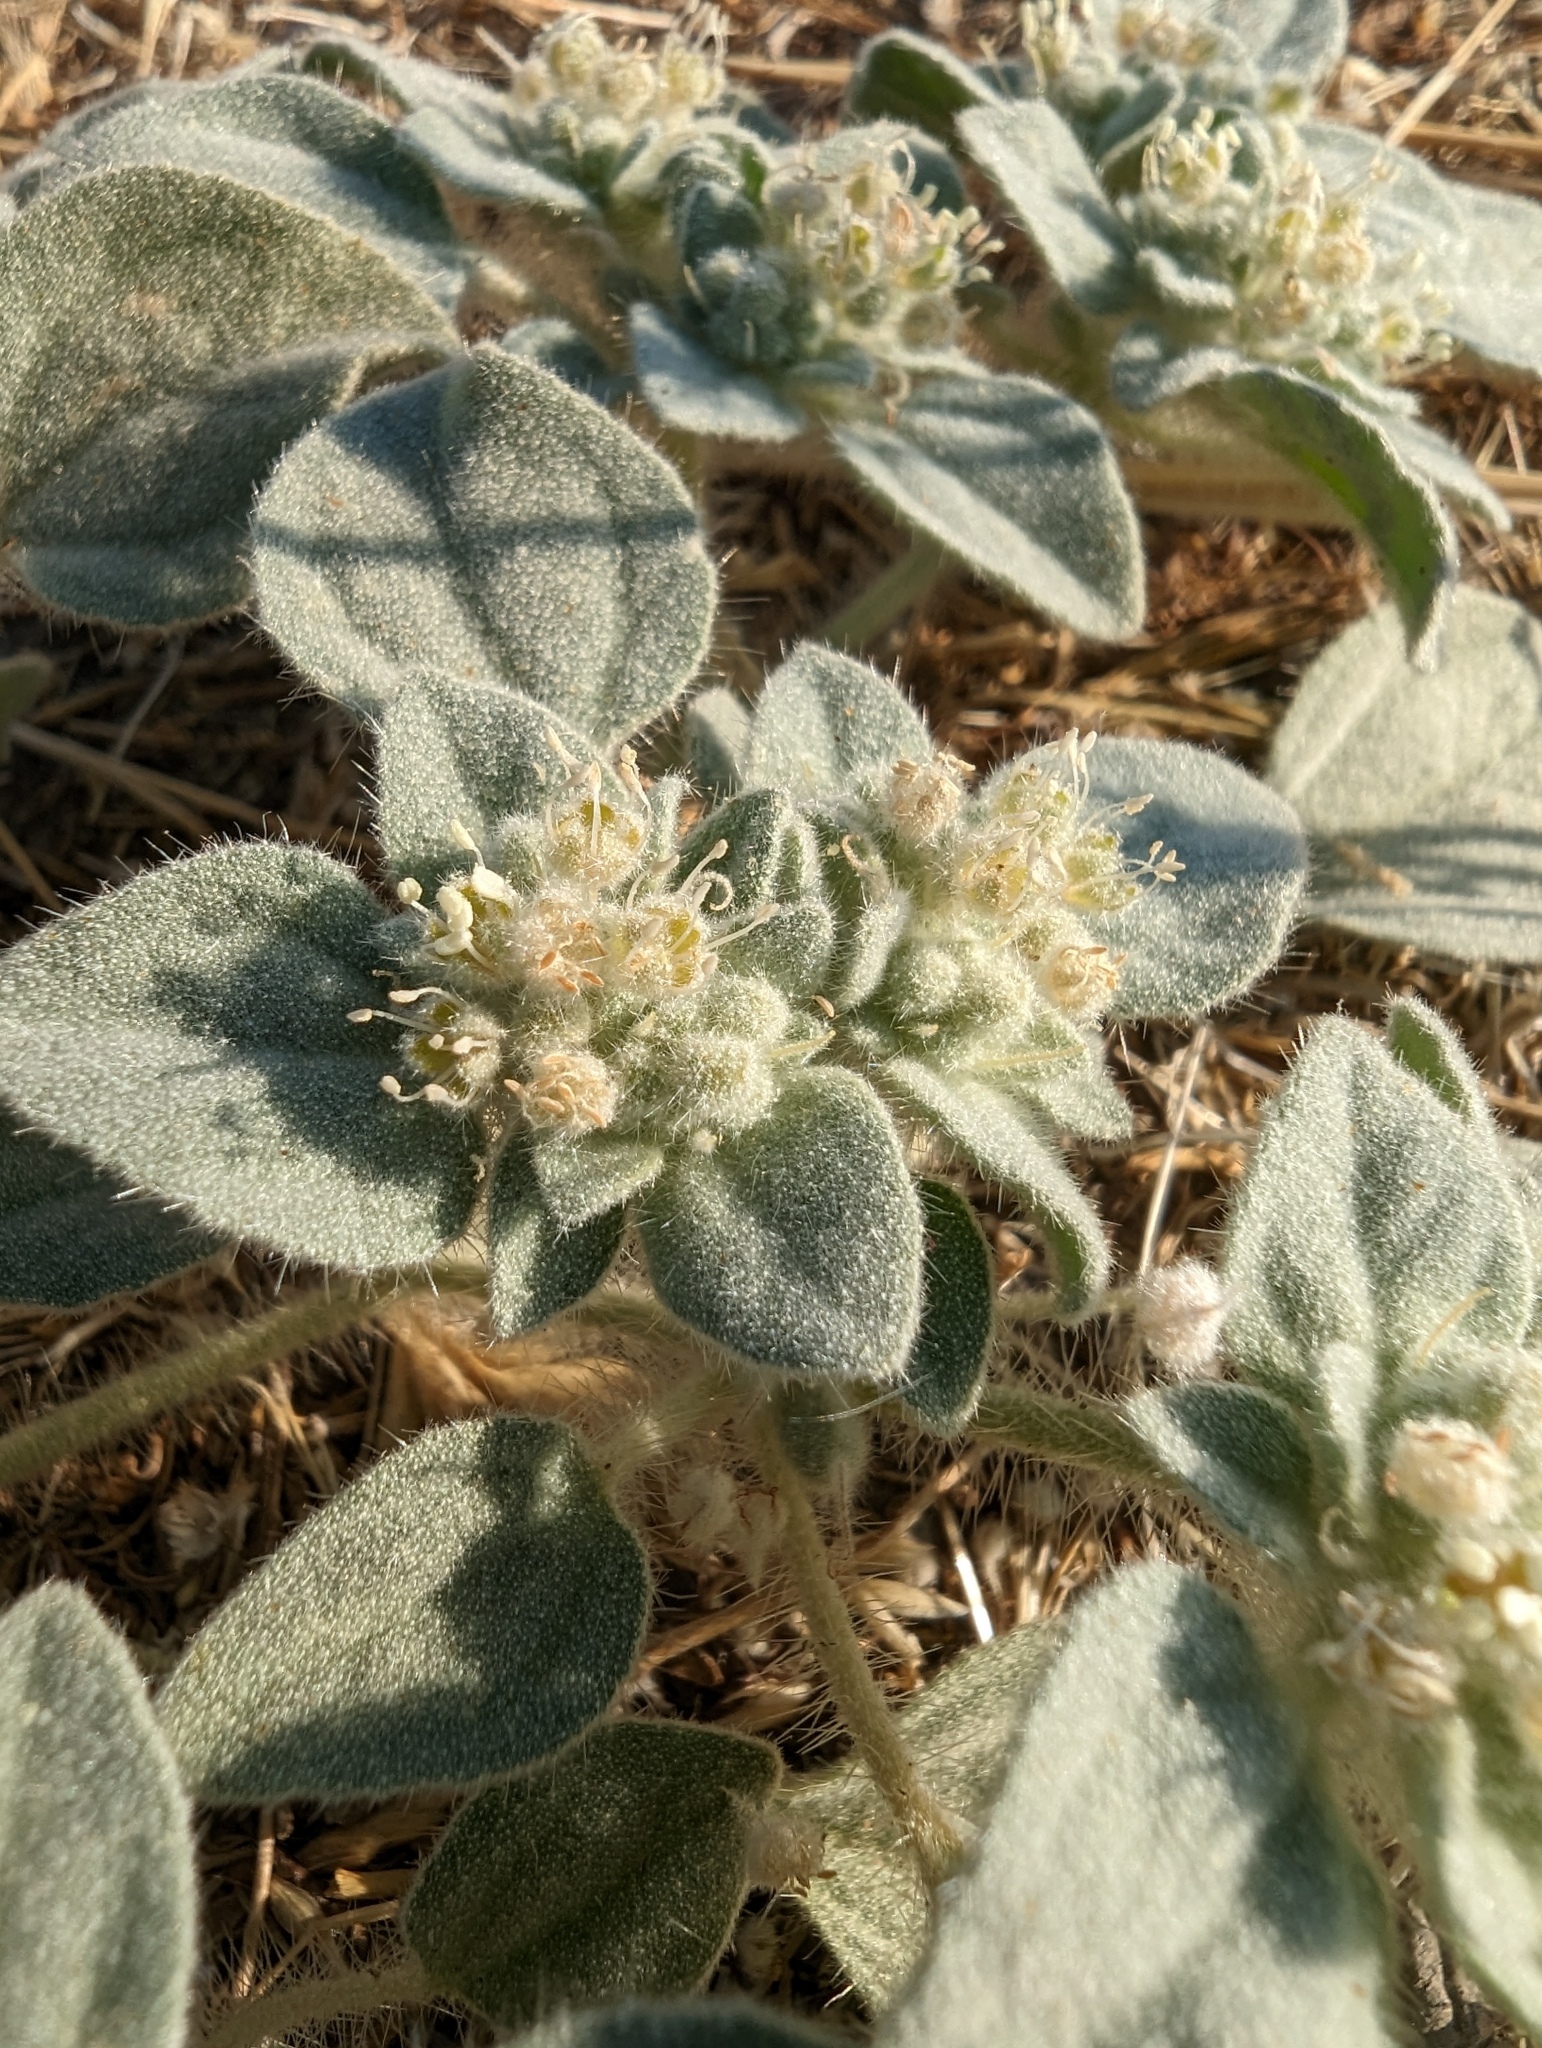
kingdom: Plantae
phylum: Tracheophyta
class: Magnoliopsida
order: Malpighiales
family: Euphorbiaceae
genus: Croton
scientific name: Croton setiger
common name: Dove weed
